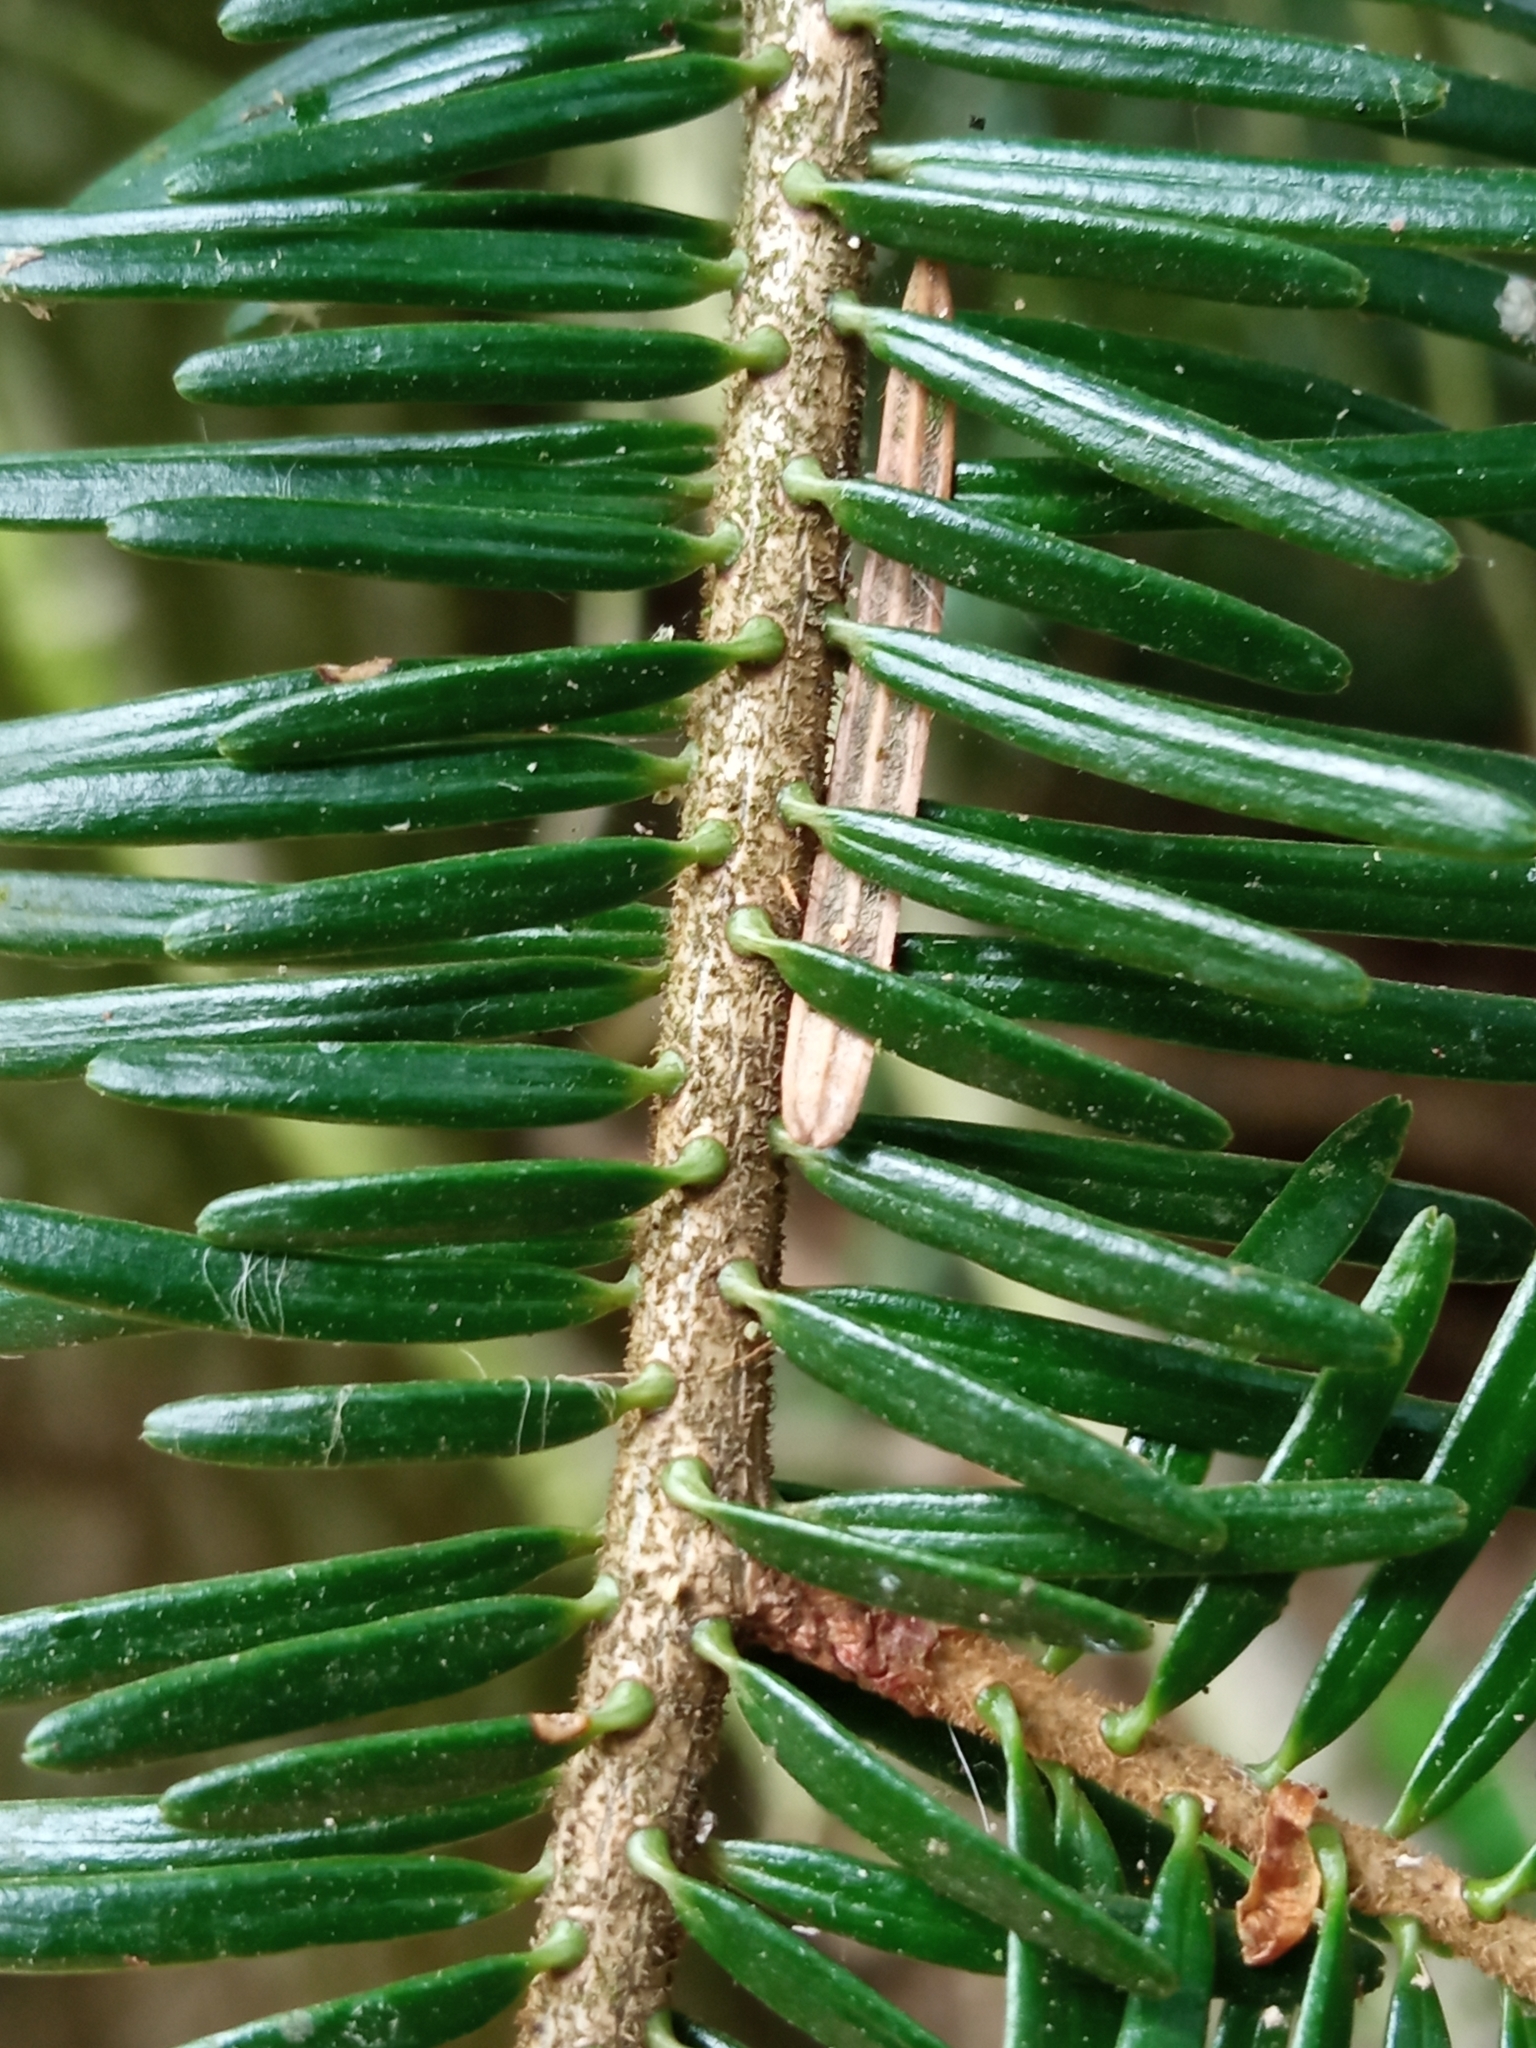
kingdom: Plantae
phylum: Tracheophyta
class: Pinopsida
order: Pinales
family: Pinaceae
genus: Abies
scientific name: Abies alba
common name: Silver fir
